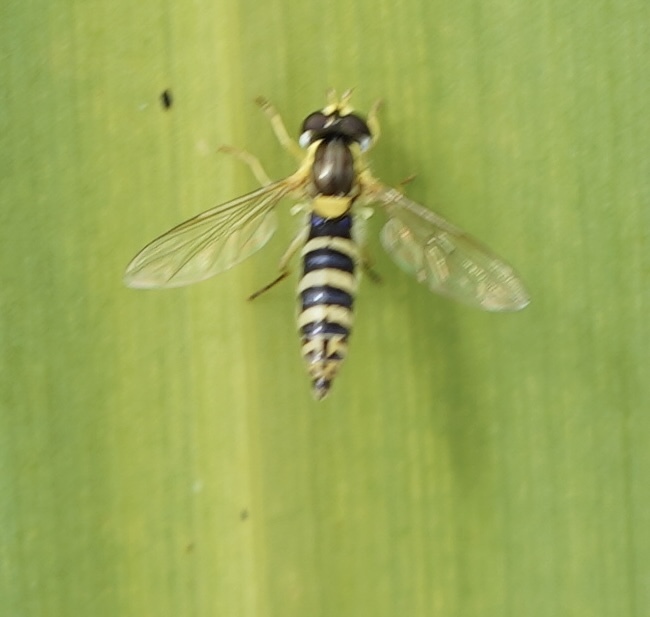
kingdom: Animalia
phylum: Arthropoda
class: Insecta
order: Diptera
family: Syrphidae
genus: Sphaerophoria
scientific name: Sphaerophoria
